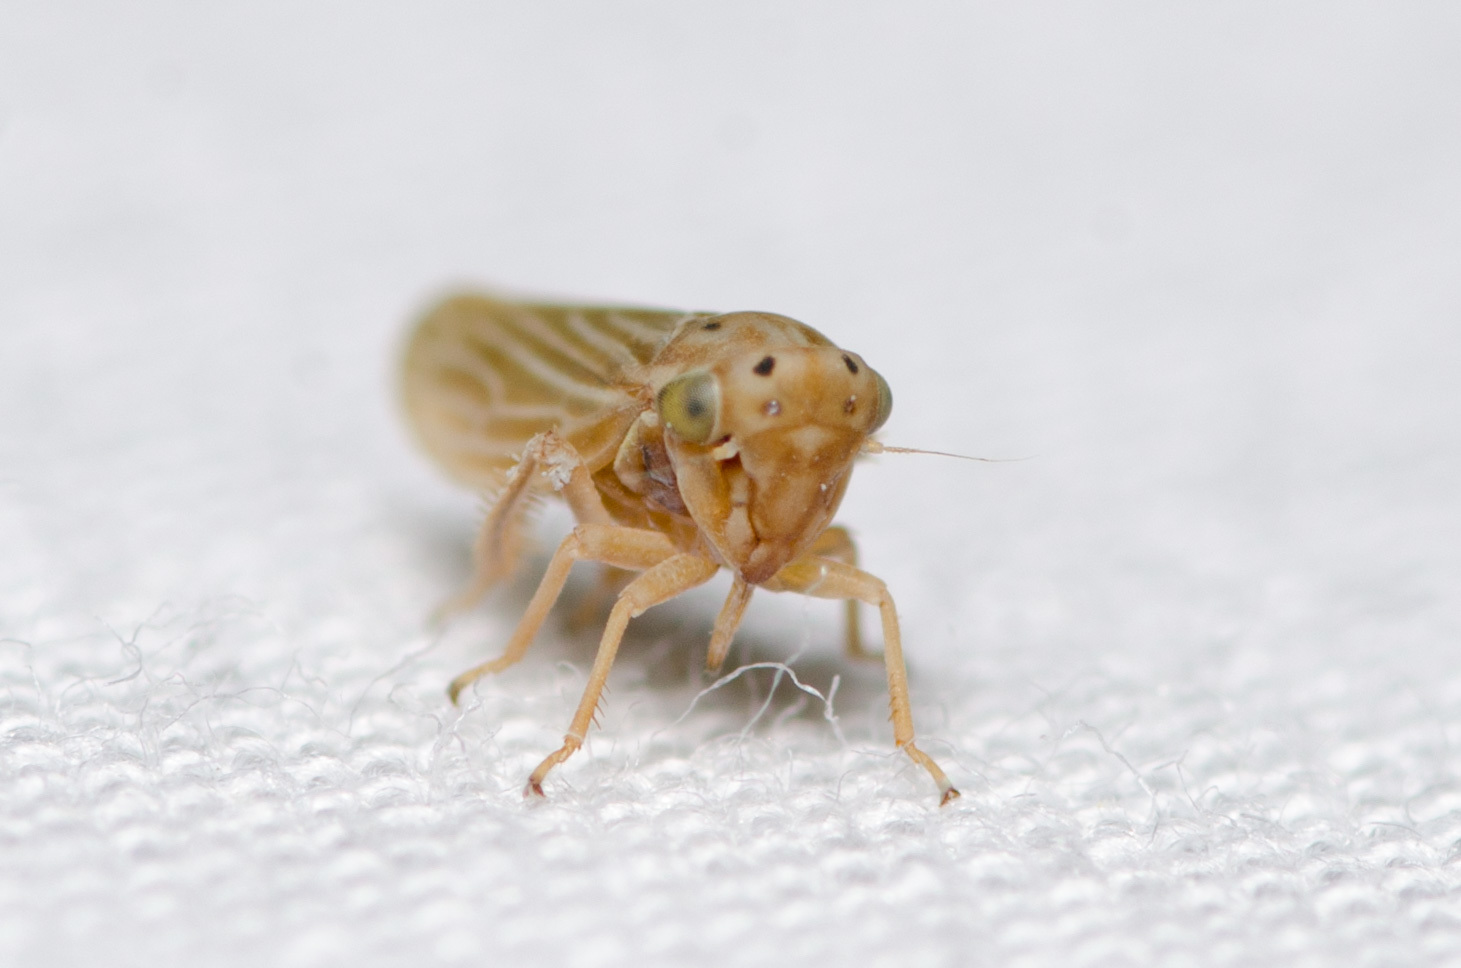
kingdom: Animalia
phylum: Arthropoda
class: Insecta
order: Hemiptera
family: Cicadellidae
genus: Agallia
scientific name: Agallia constricta
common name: The constricted leafhopper
